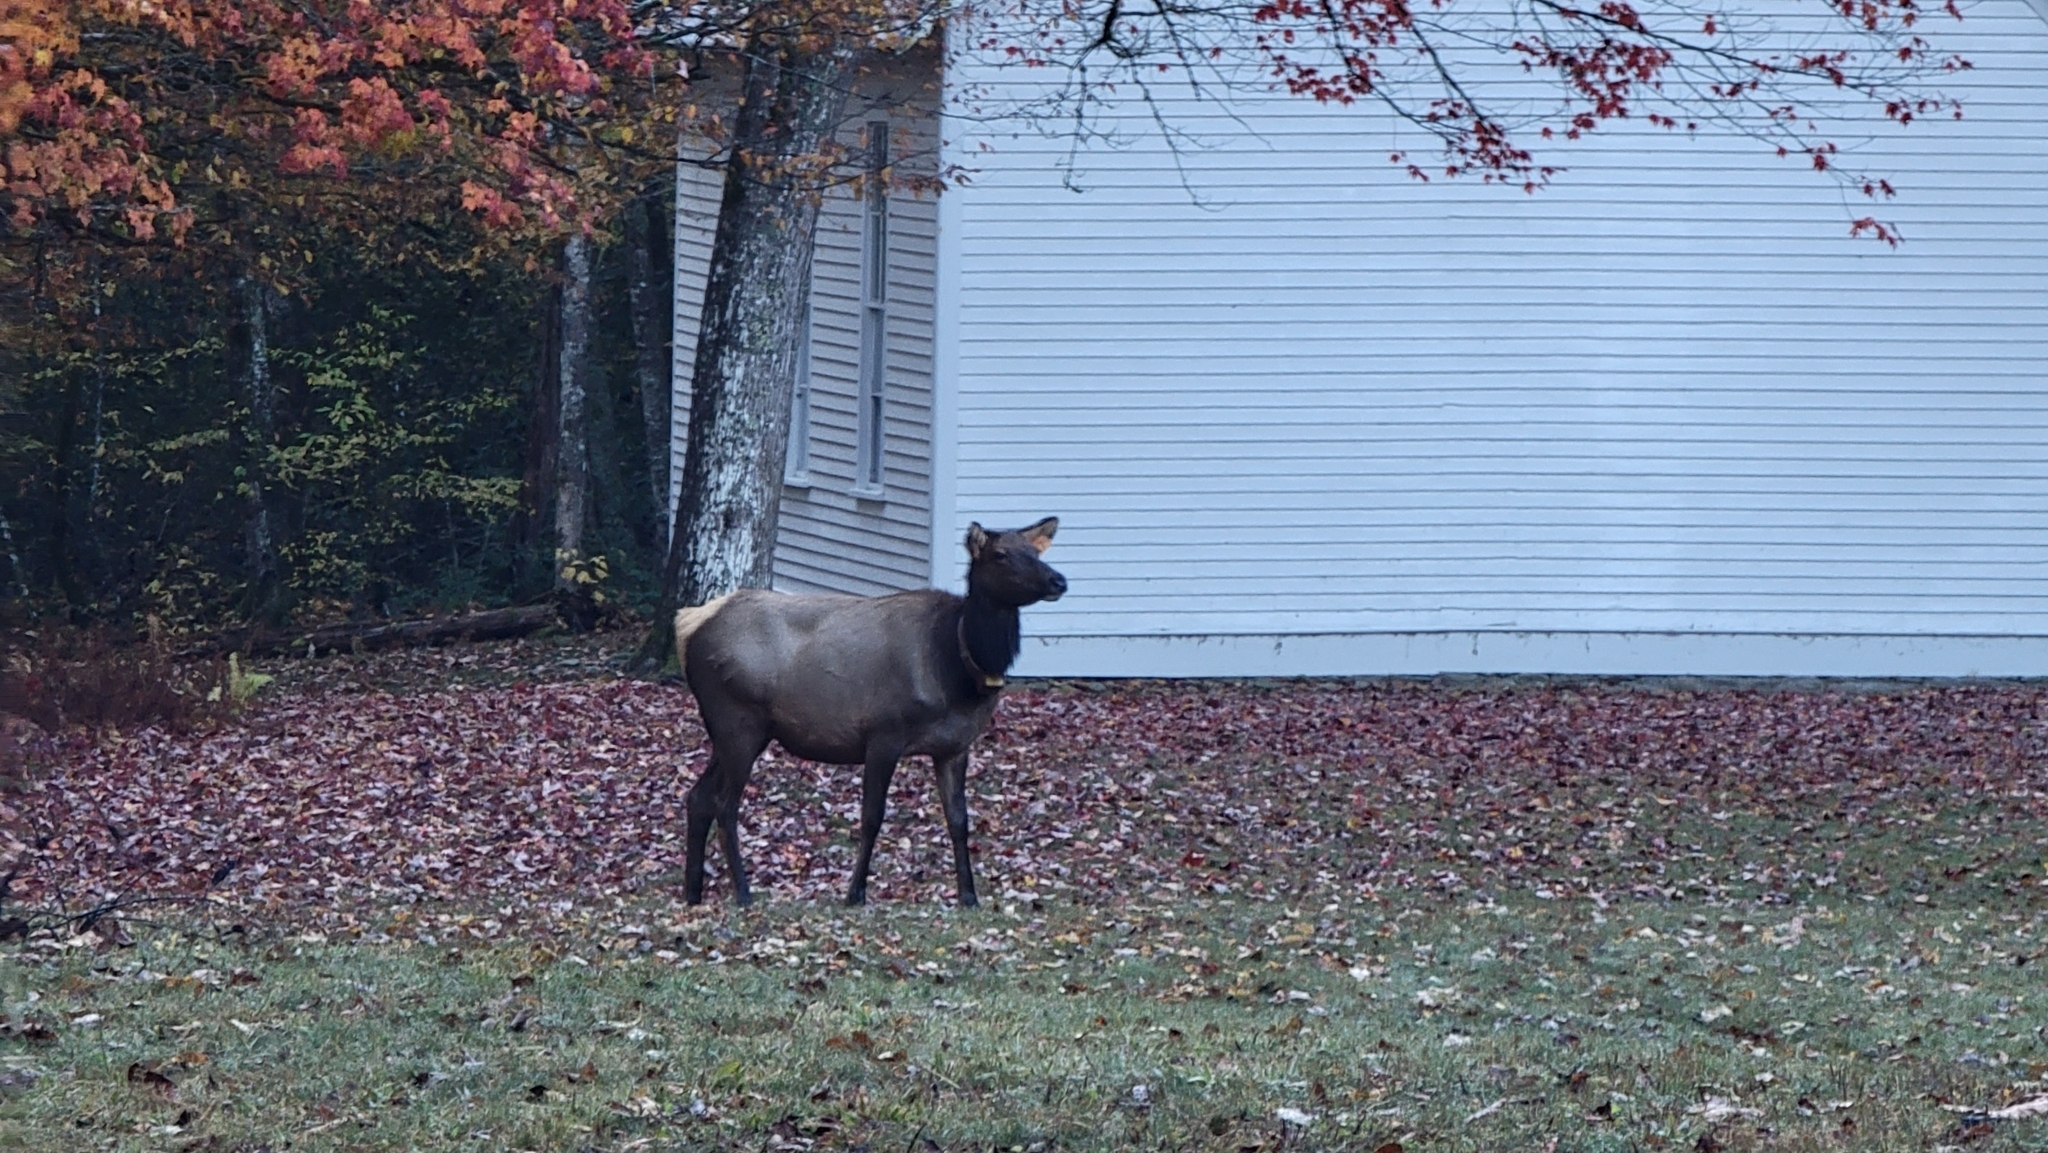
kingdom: Animalia
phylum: Chordata
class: Mammalia
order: Artiodactyla
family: Cervidae
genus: Cervus
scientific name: Cervus elaphus
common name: Red deer
